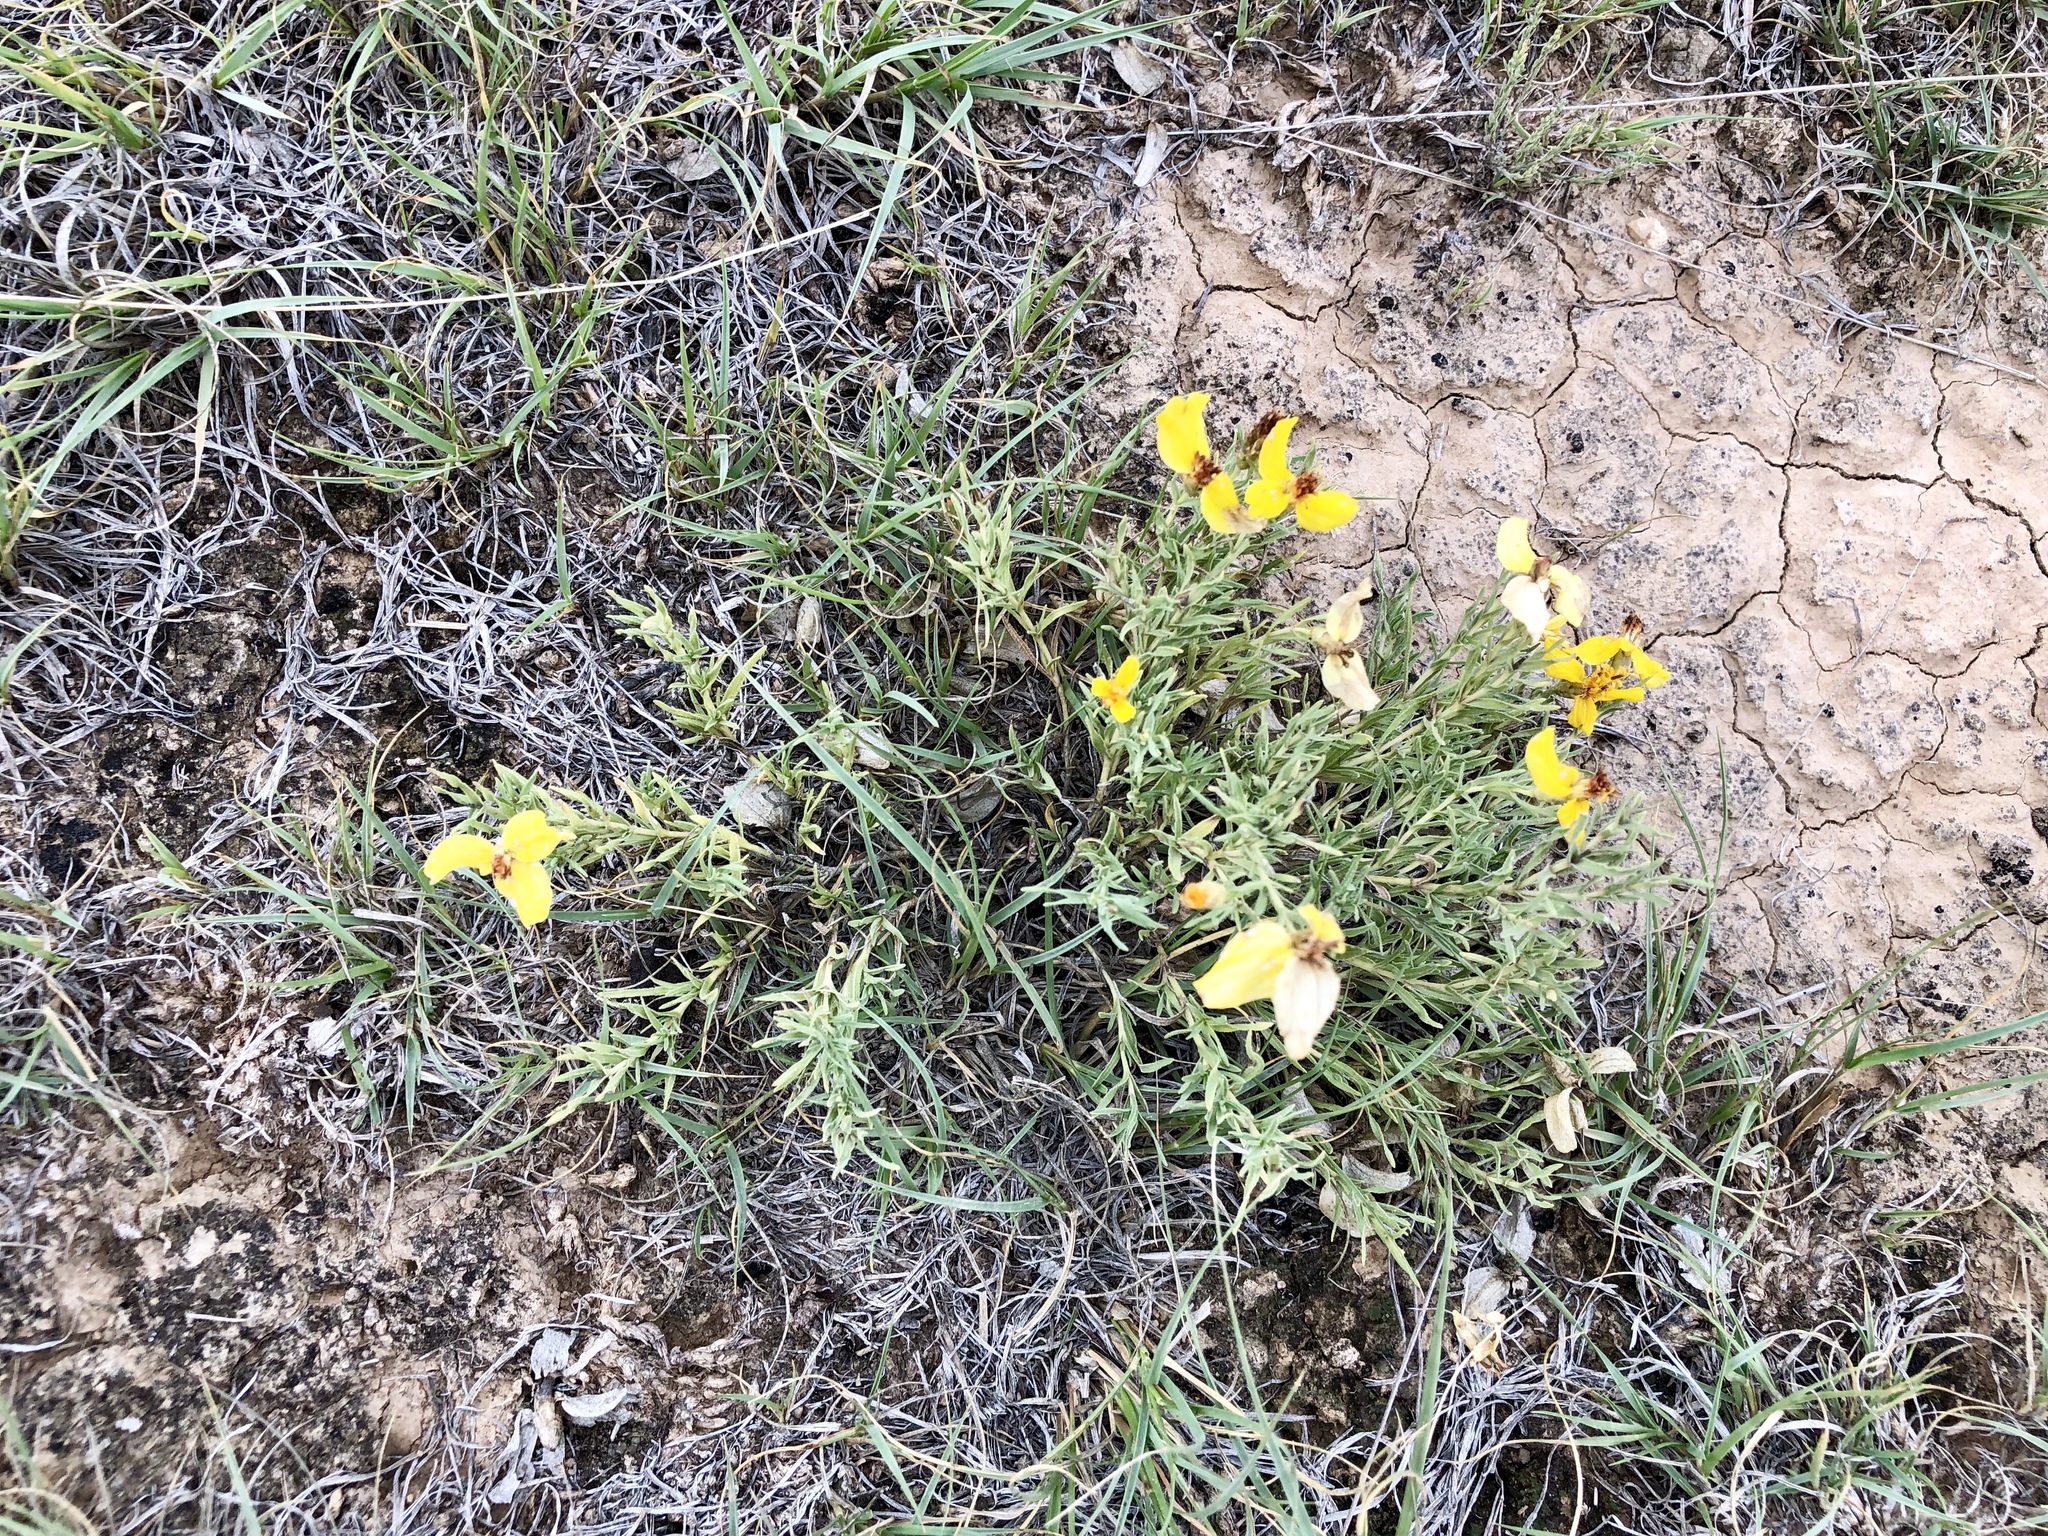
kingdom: Plantae
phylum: Tracheophyta
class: Magnoliopsida
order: Asterales
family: Asteraceae
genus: Zinnia
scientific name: Zinnia grandiflora
